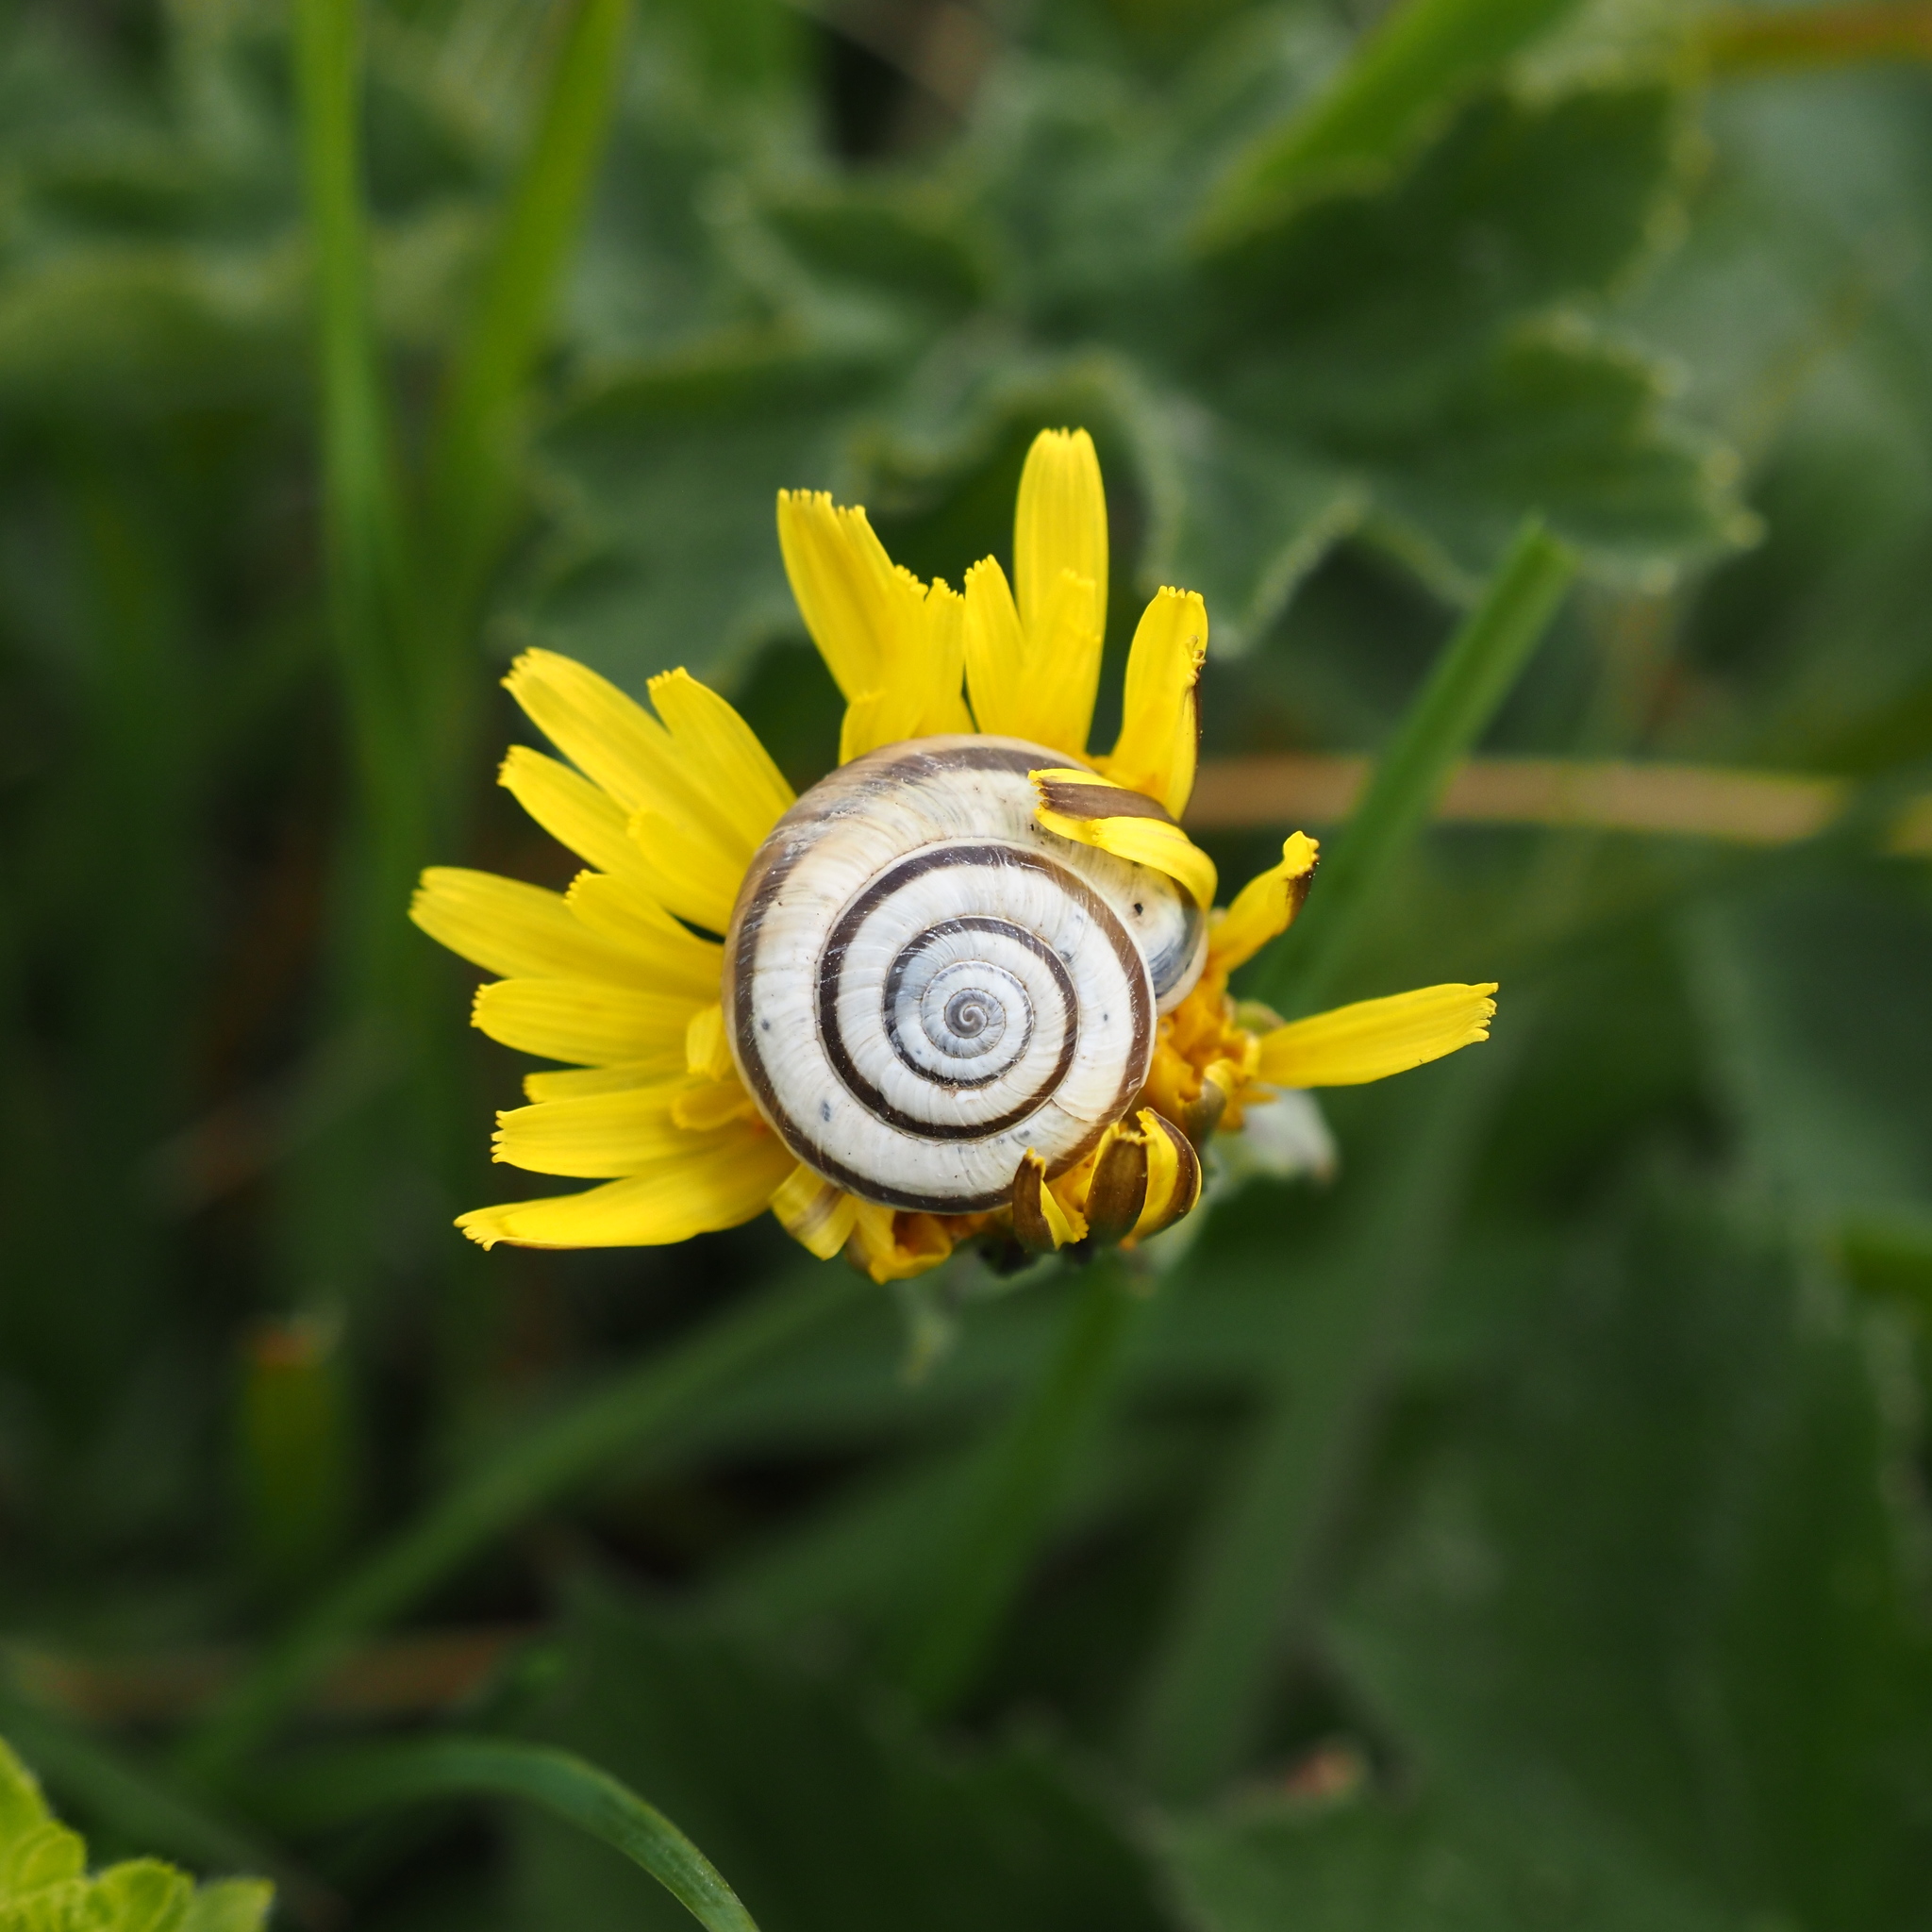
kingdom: Animalia
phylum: Mollusca
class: Gastropoda
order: Stylommatophora
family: Geomitridae
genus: Helicella
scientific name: Helicella itala
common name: Heath snail
